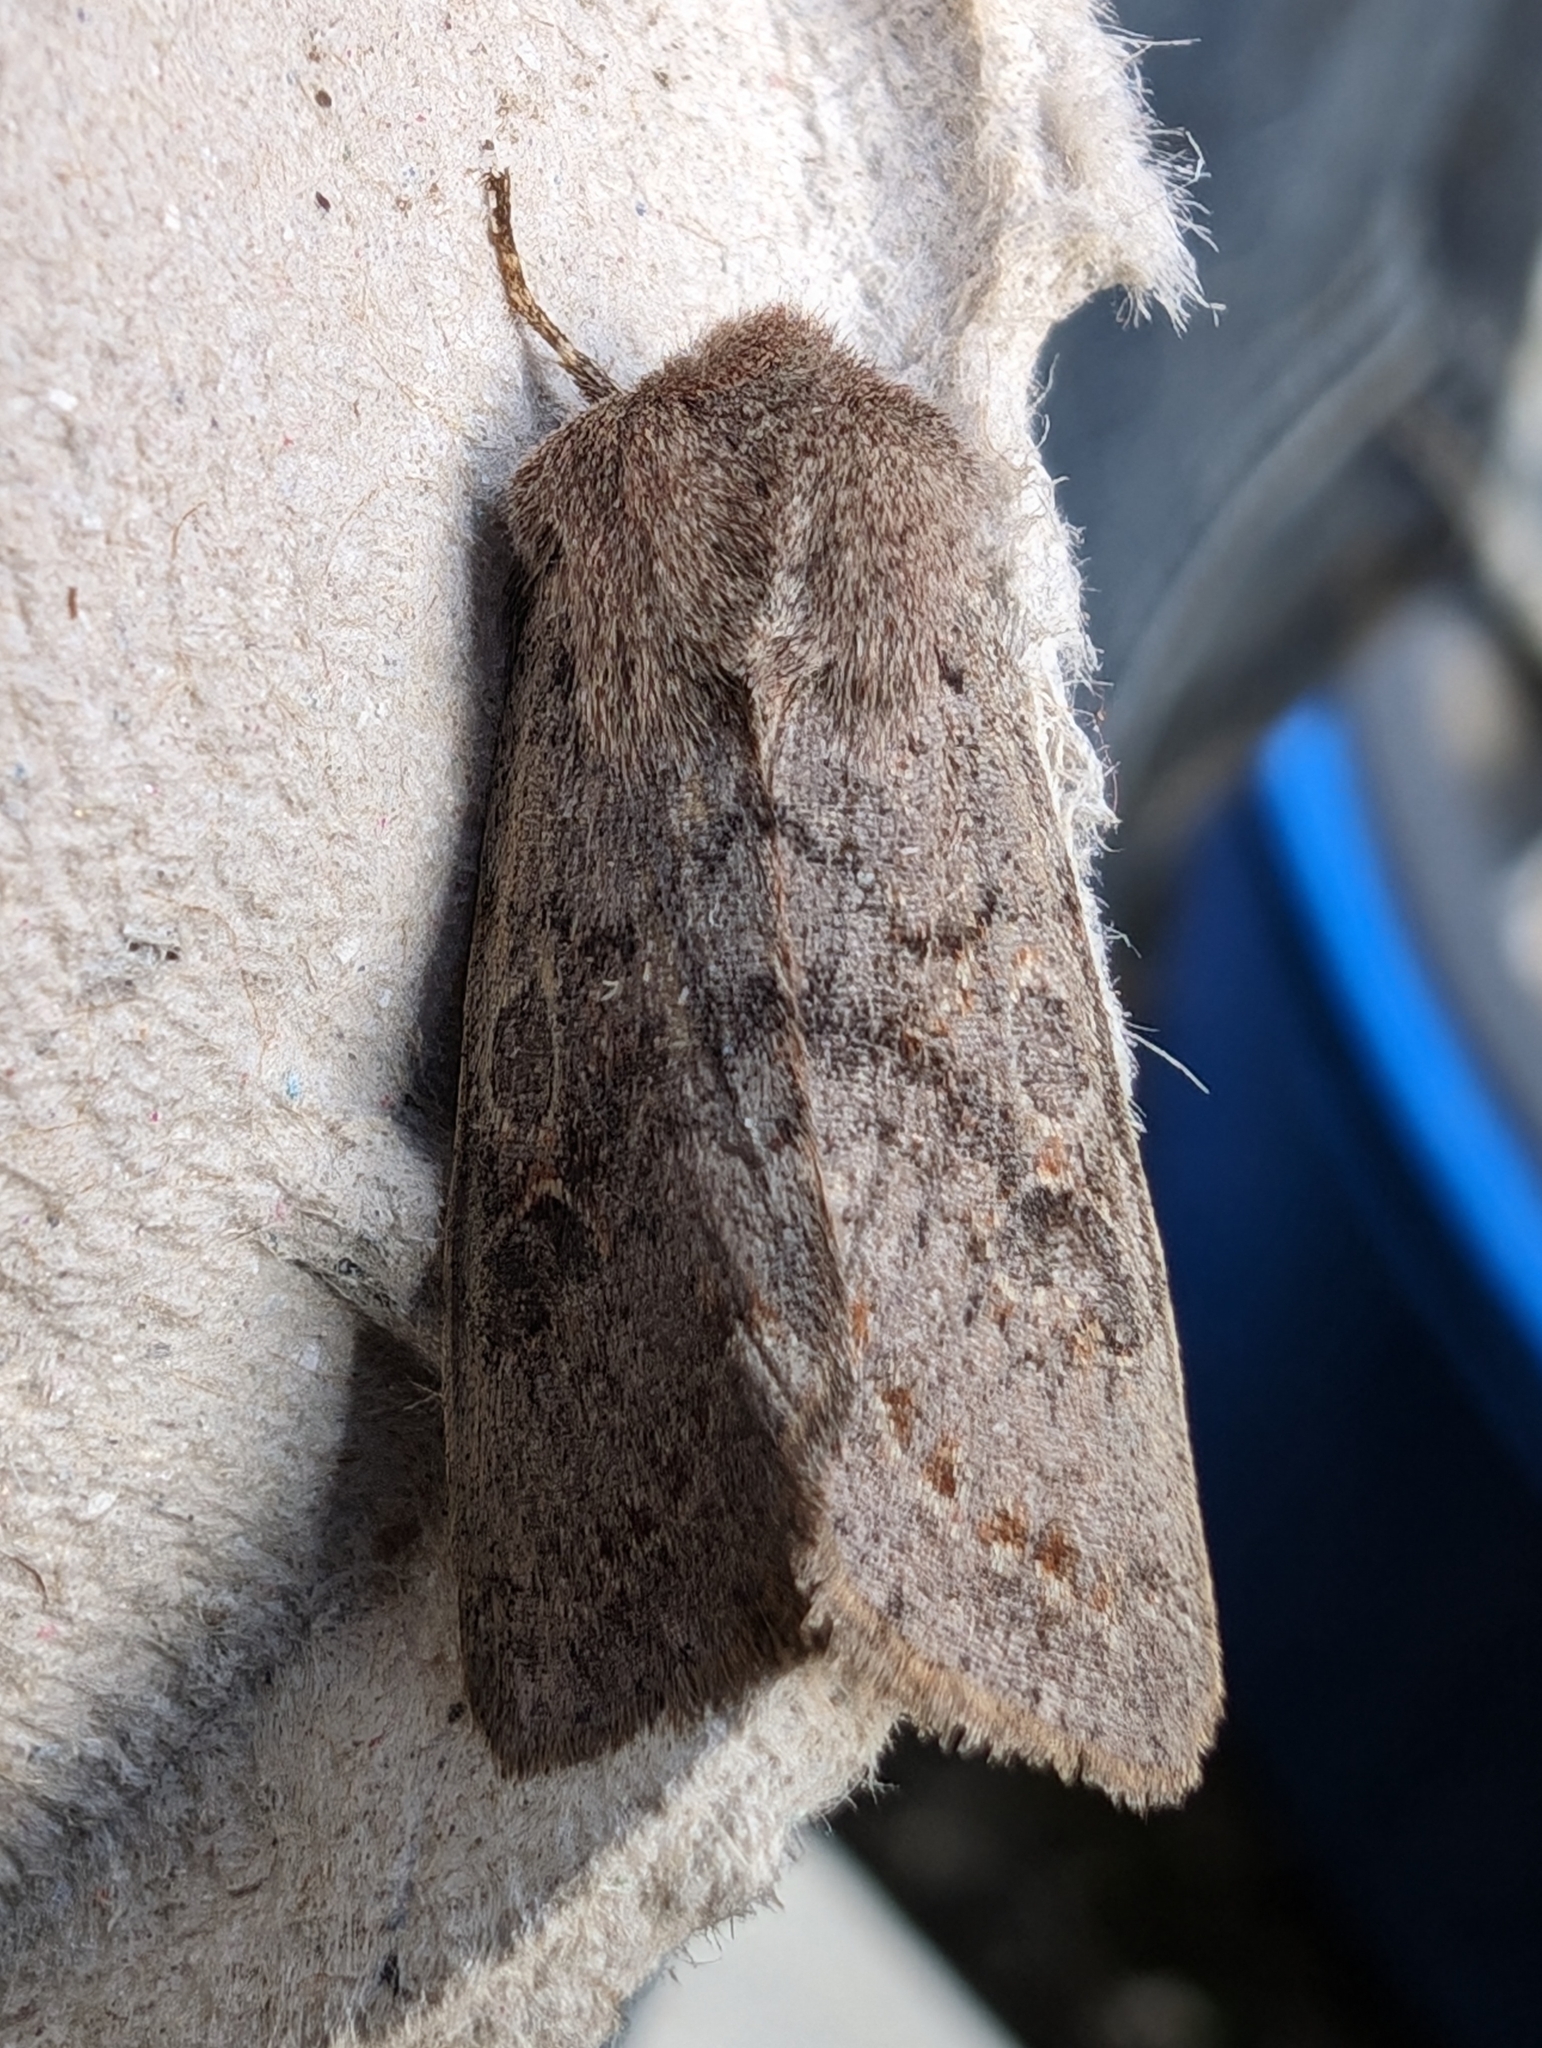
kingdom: Animalia
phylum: Arthropoda
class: Insecta
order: Lepidoptera
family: Noctuidae
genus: Orthosia
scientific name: Orthosia populeti
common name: Lead-coloured drab
